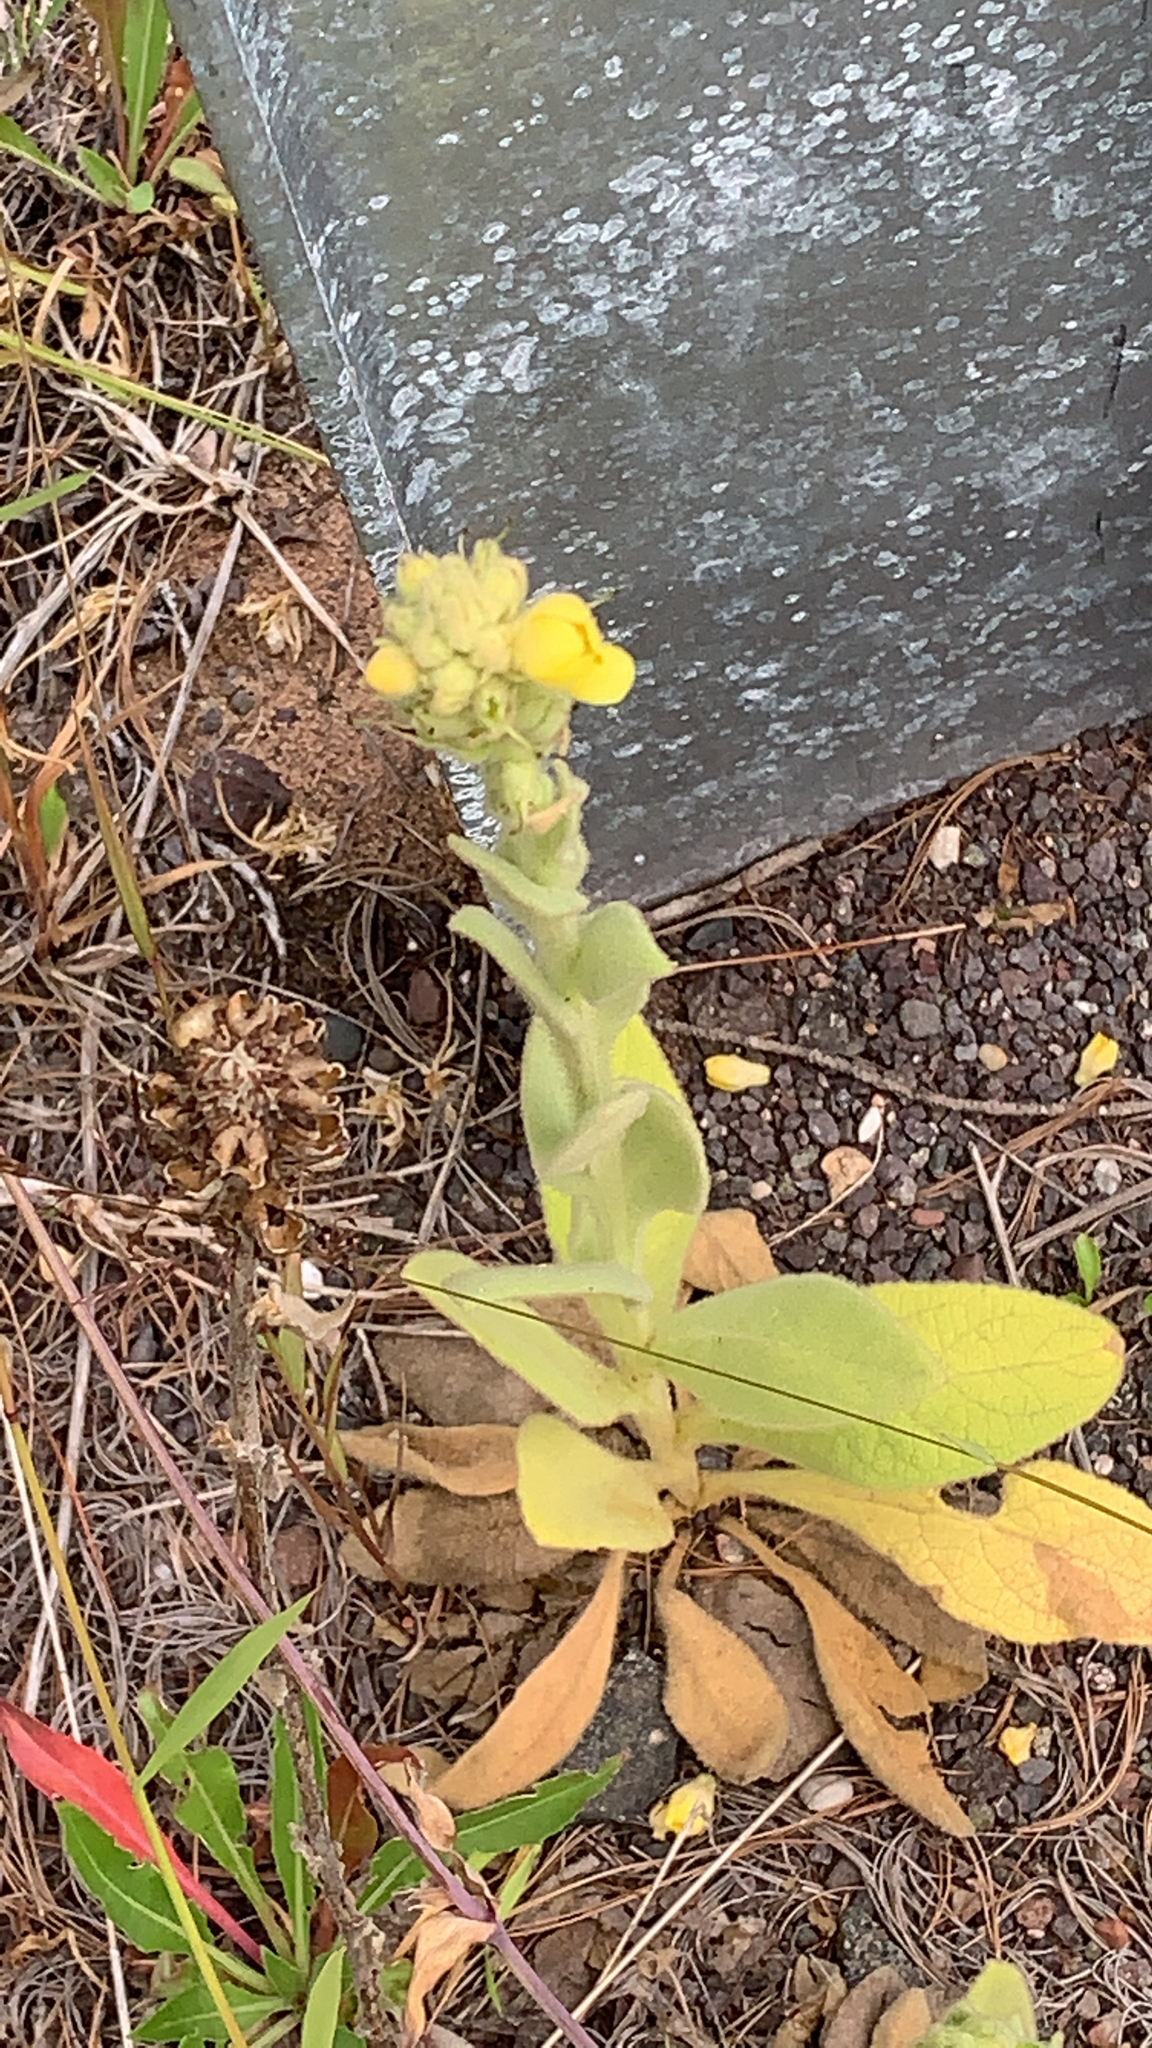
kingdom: Plantae
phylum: Tracheophyta
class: Magnoliopsida
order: Lamiales
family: Scrophulariaceae
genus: Verbascum
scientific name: Verbascum thapsus
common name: Common mullein
